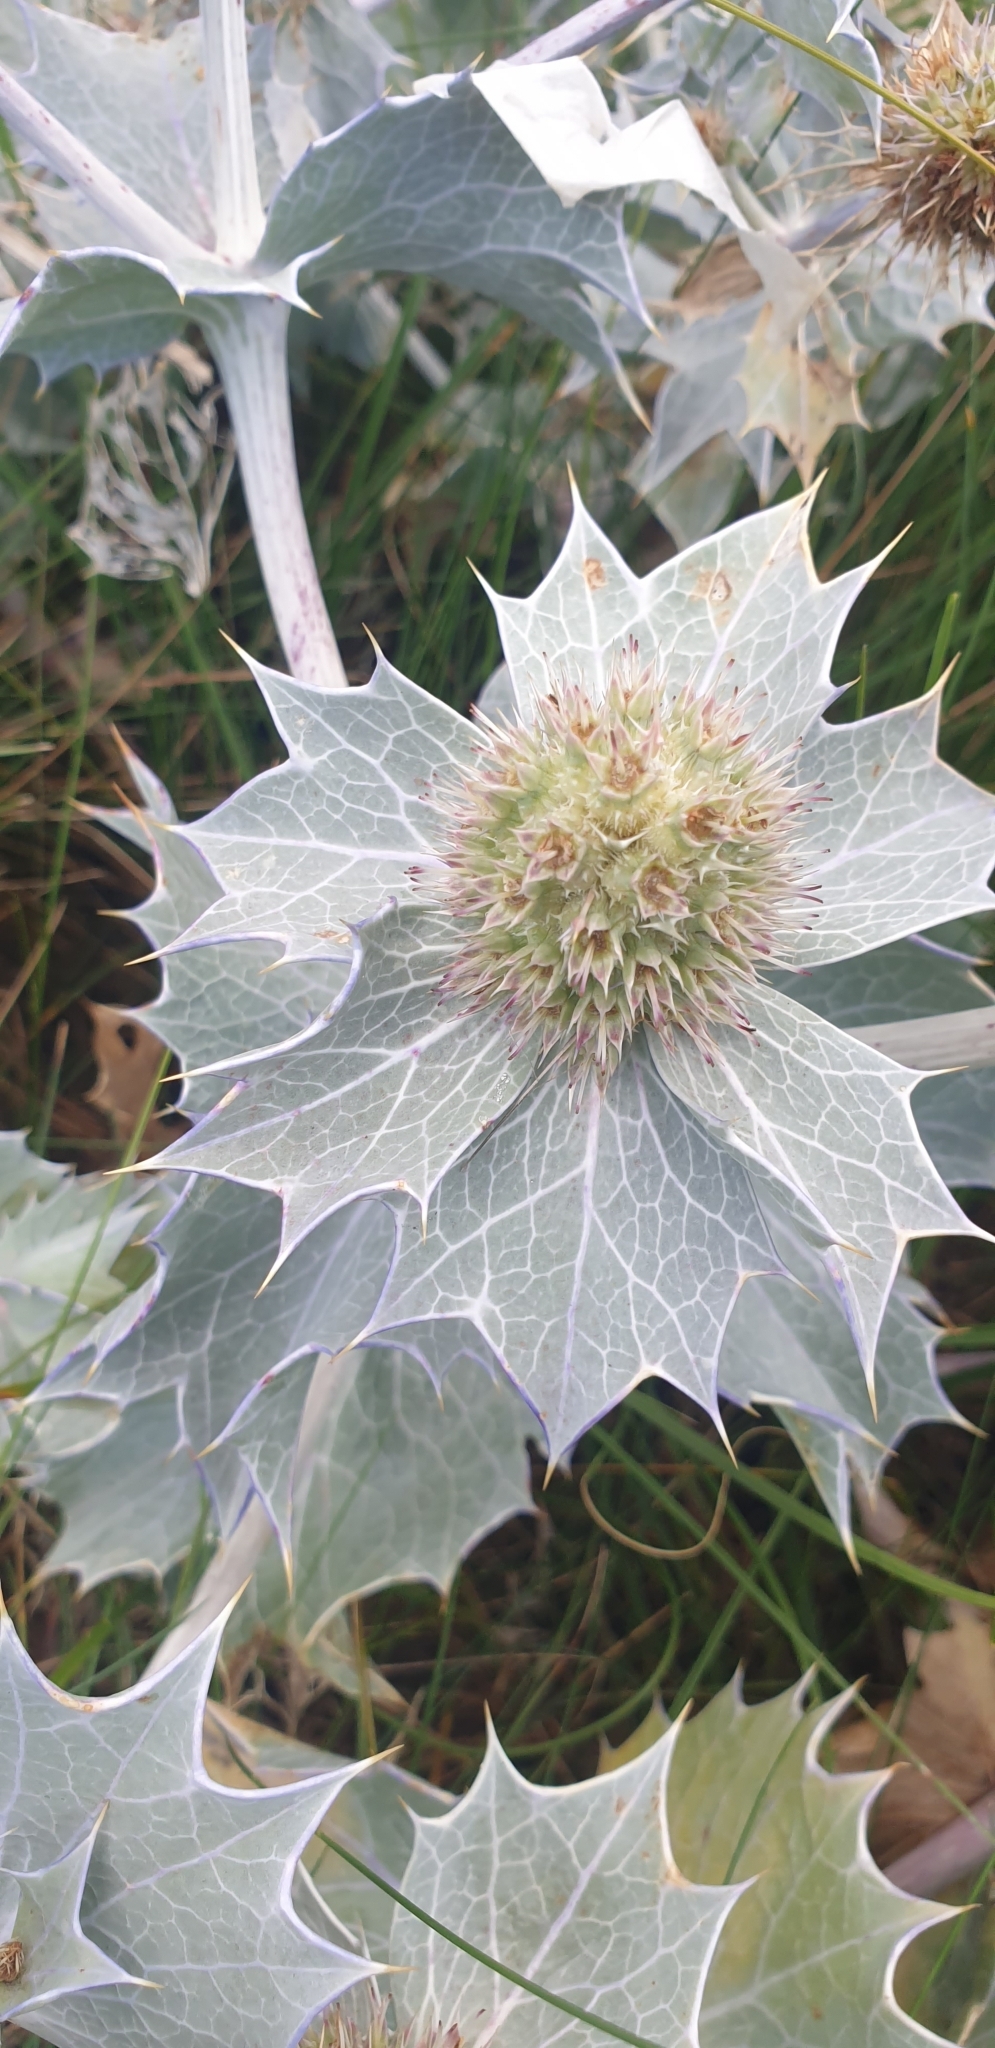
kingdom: Plantae
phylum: Tracheophyta
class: Magnoliopsida
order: Apiales
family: Apiaceae
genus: Eryngium
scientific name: Eryngium maritimum
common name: Sea-holly
